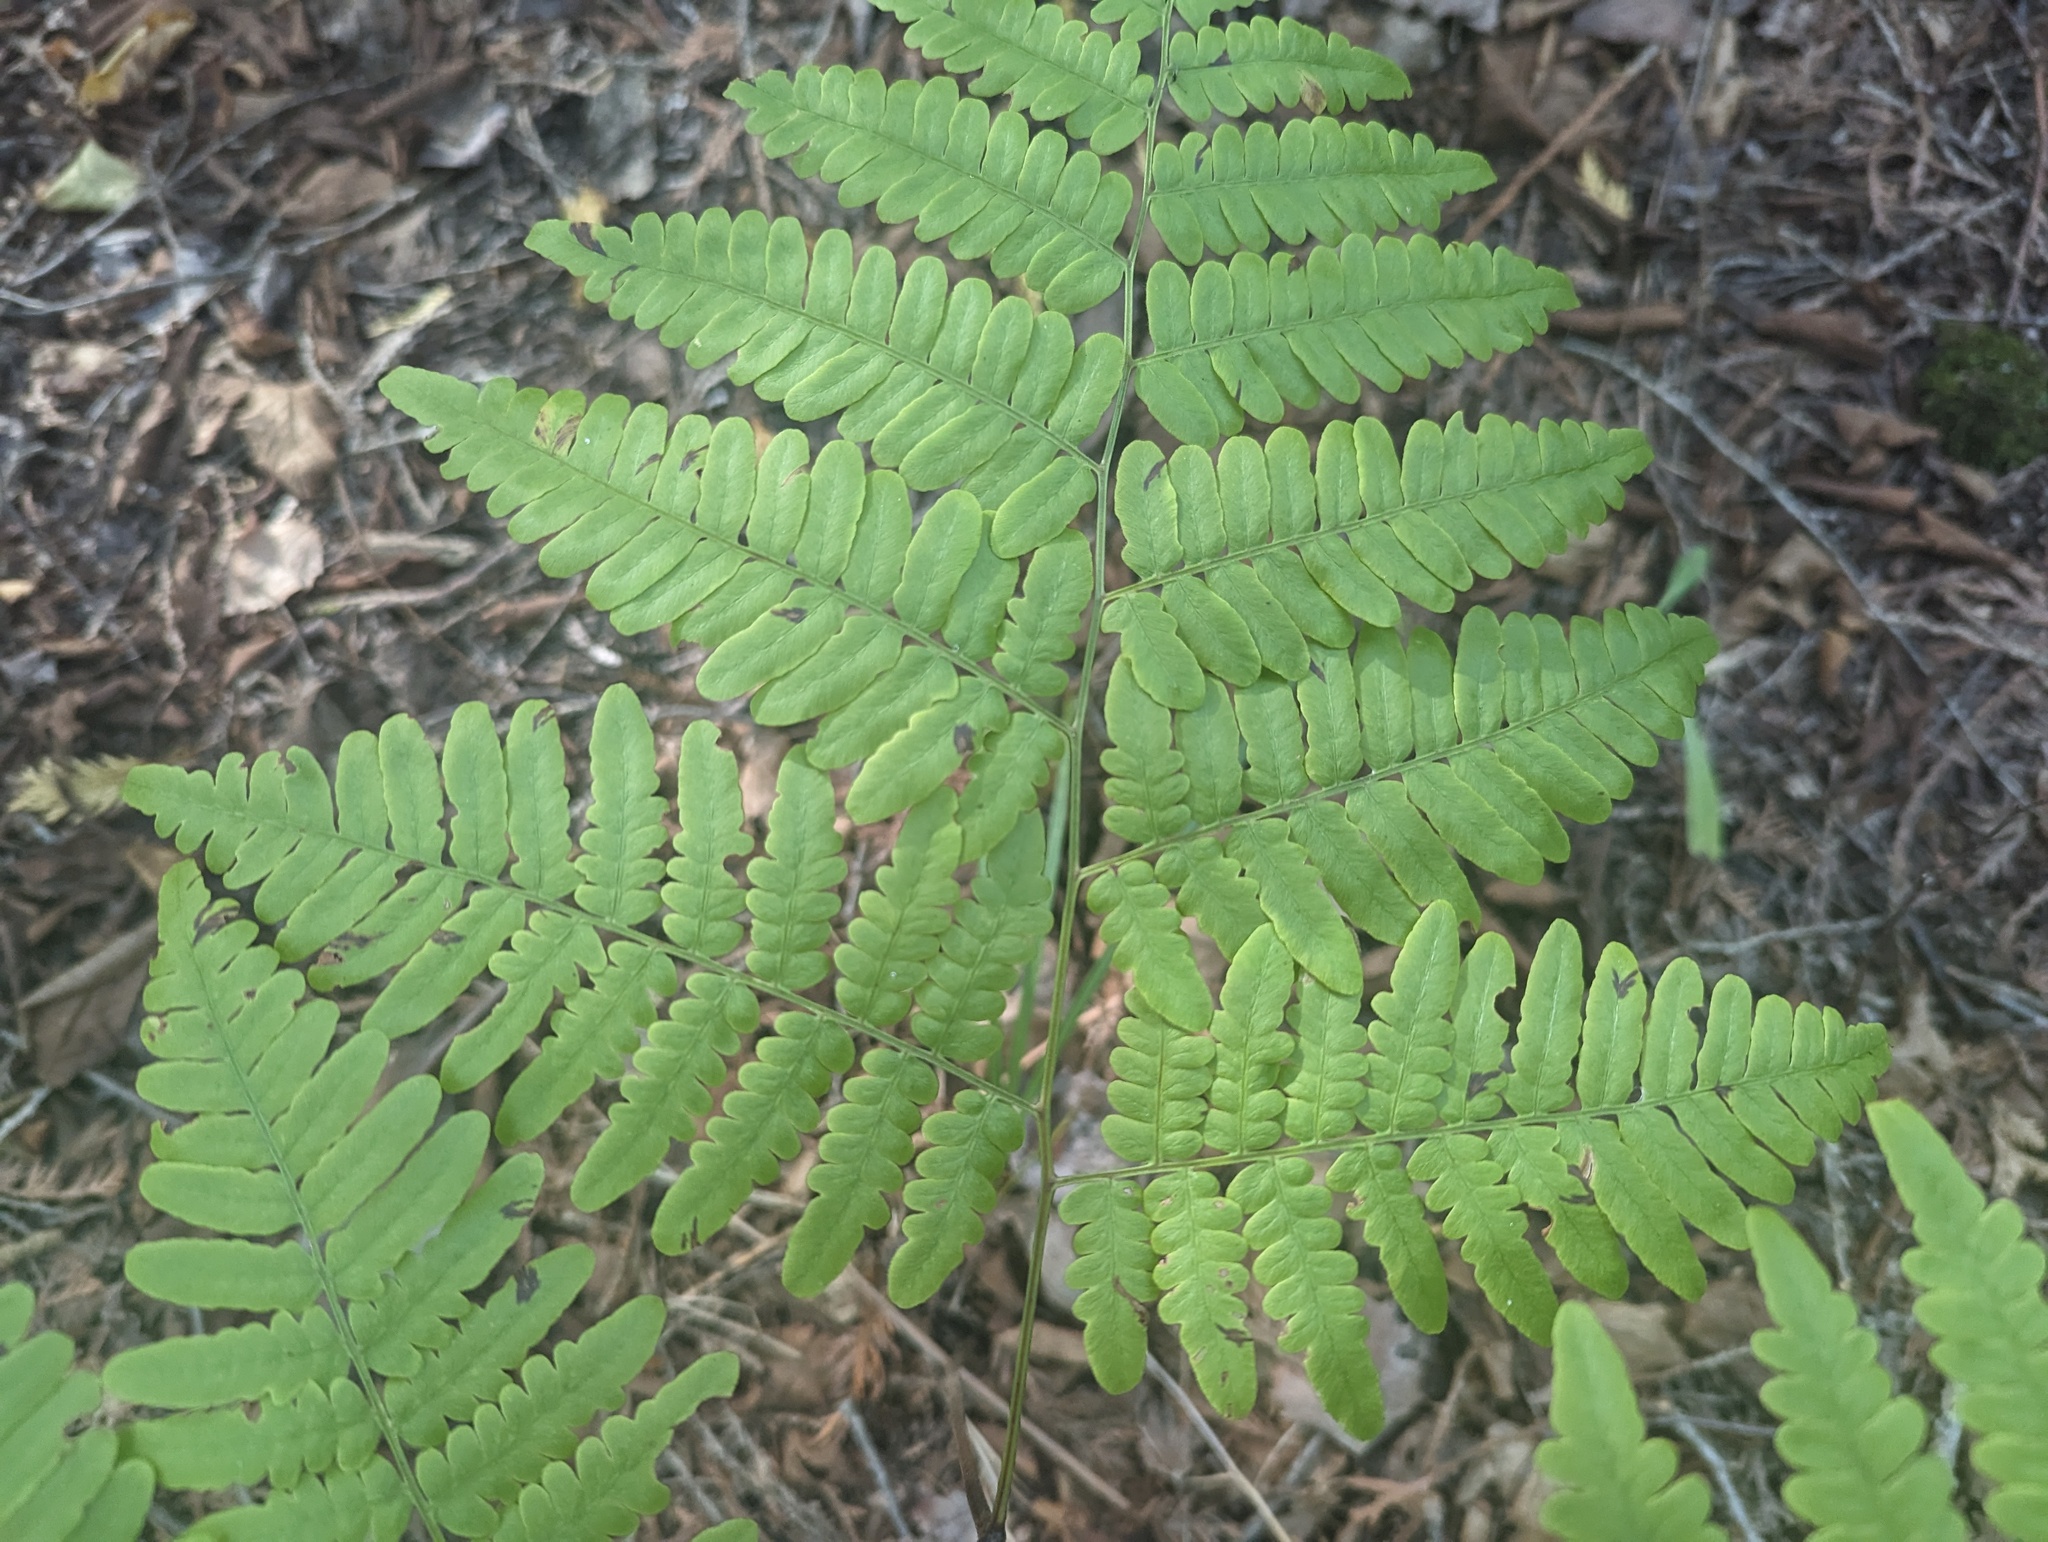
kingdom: Plantae
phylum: Tracheophyta
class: Polypodiopsida
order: Polypodiales
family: Dennstaedtiaceae
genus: Pteridium
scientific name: Pteridium aquilinum
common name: Bracken
